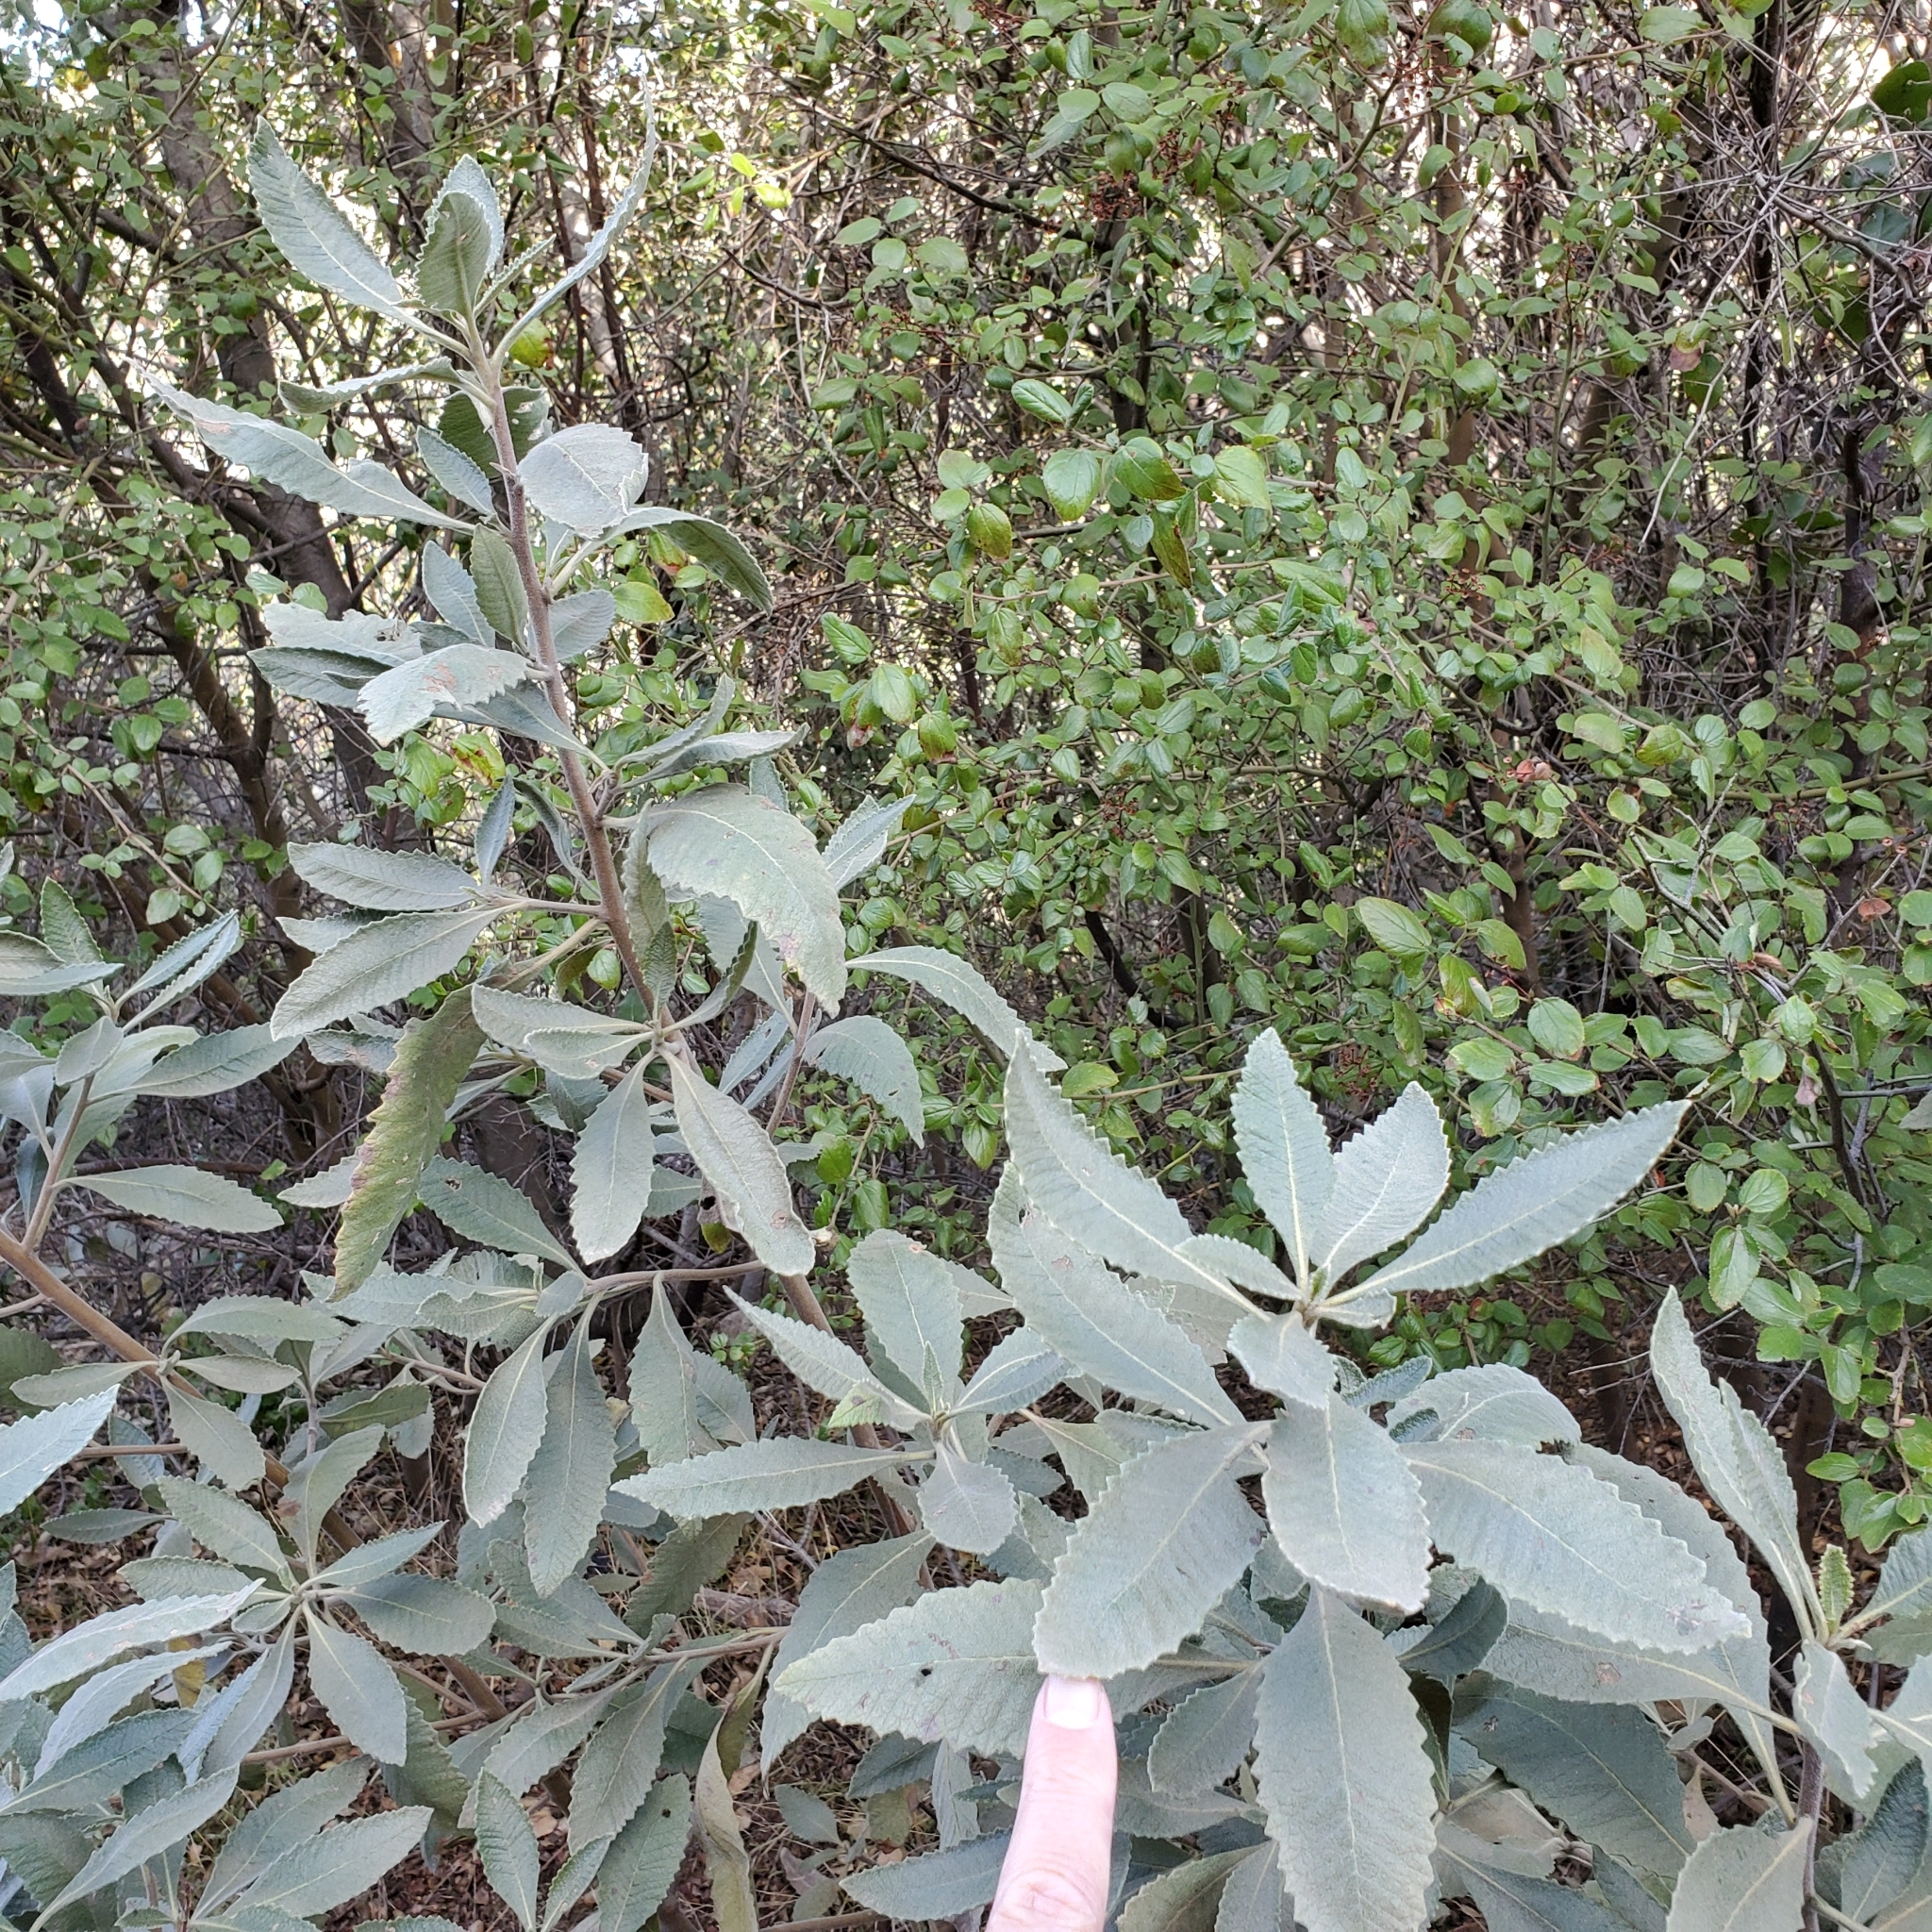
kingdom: Plantae
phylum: Tracheophyta
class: Magnoliopsida
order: Boraginales
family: Namaceae
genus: Eriodictyon
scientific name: Eriodictyon crassifolium
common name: Thick-leaf yerba-santa
